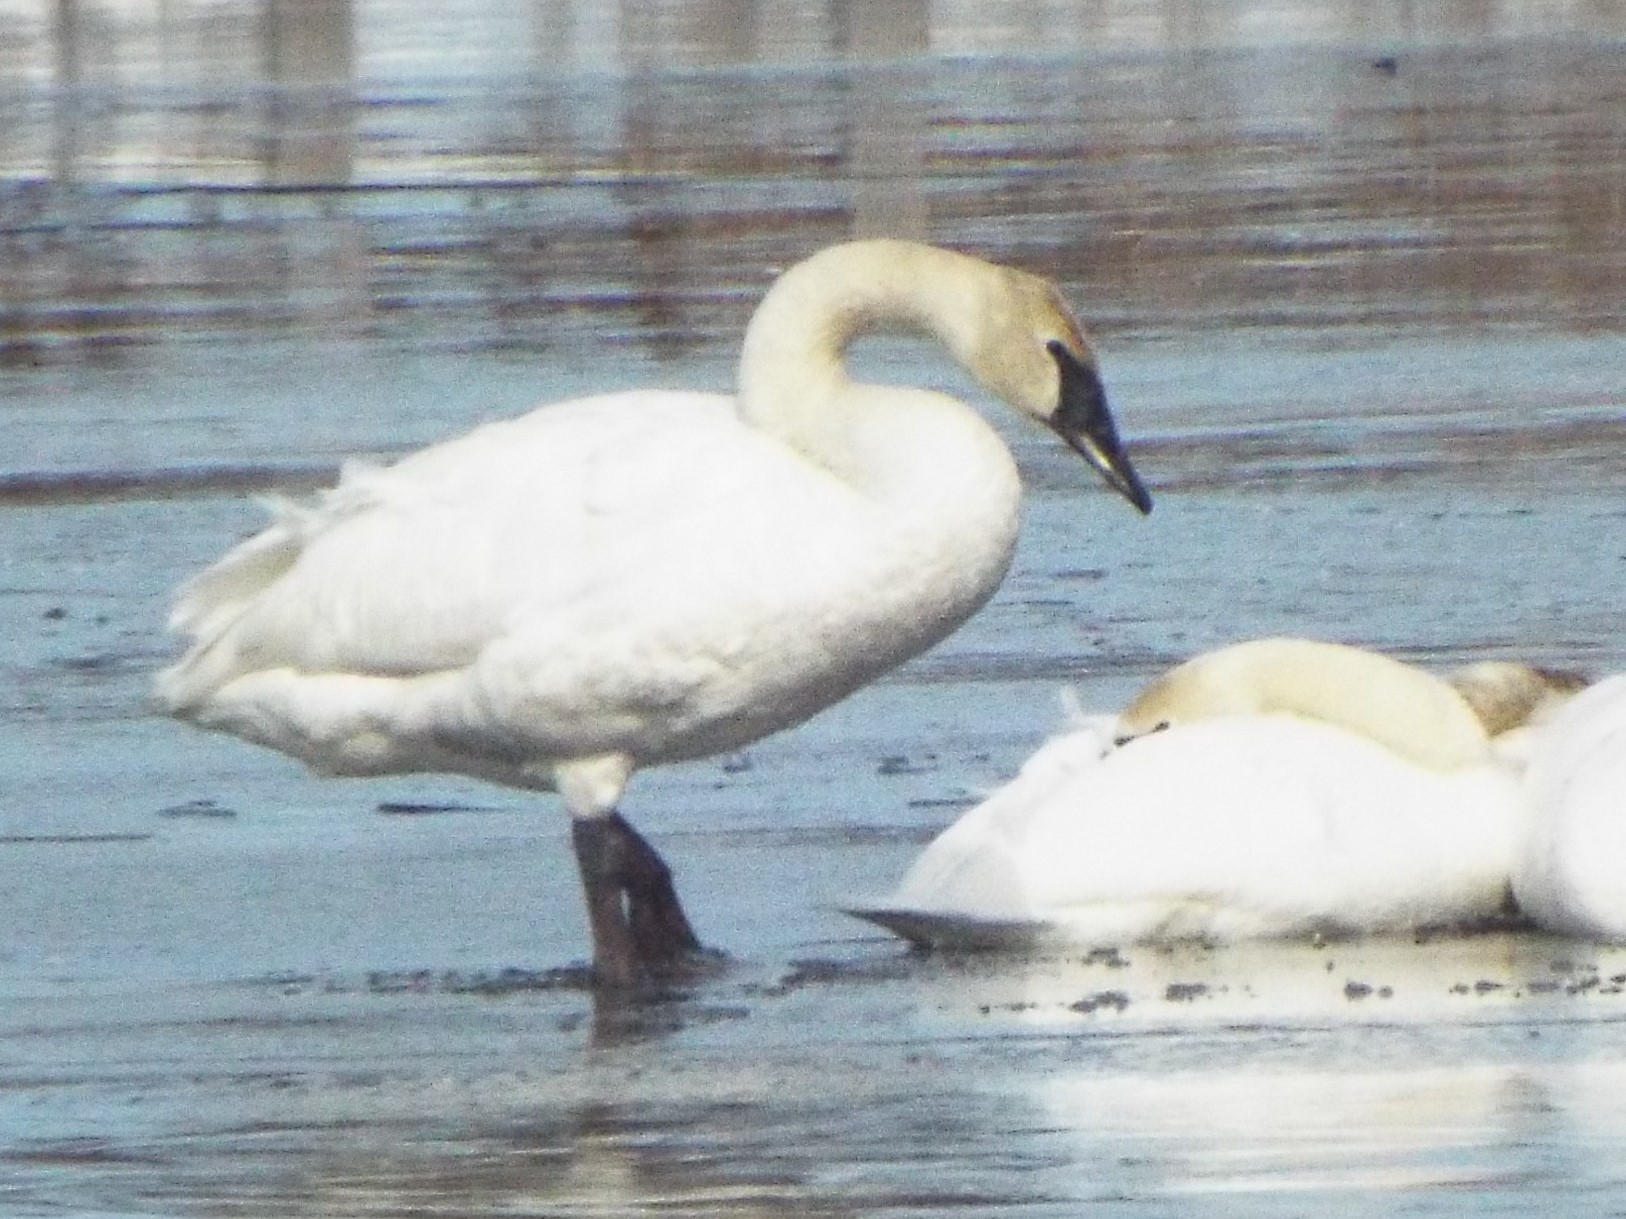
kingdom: Animalia
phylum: Chordata
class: Aves
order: Anseriformes
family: Anatidae
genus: Cygnus
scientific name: Cygnus buccinator
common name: Trumpeter swan
